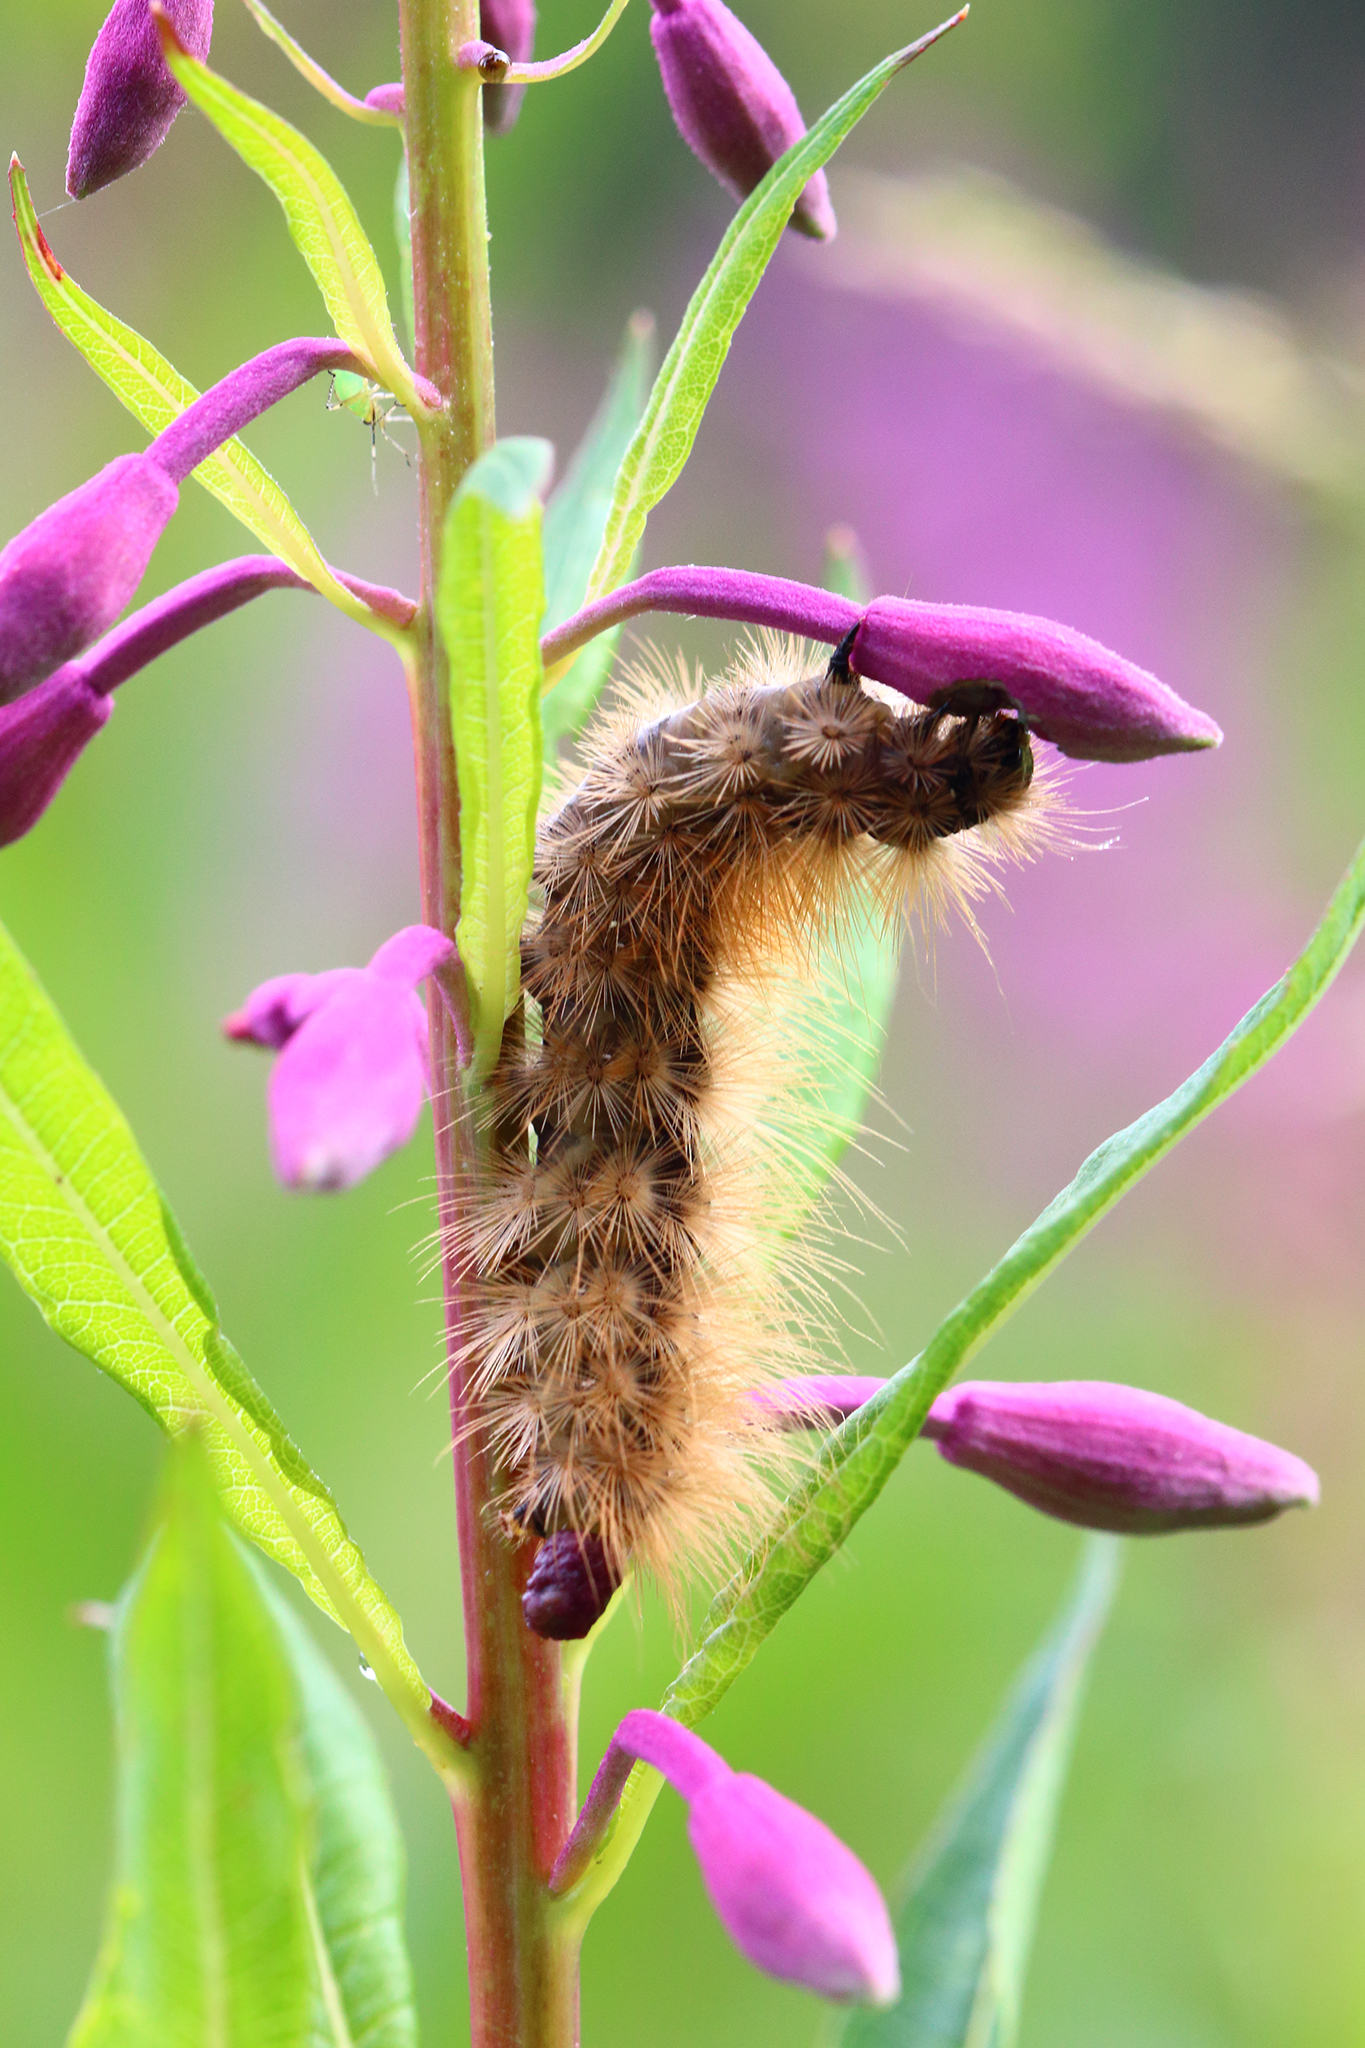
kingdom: Animalia
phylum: Arthropoda
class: Insecta
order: Lepidoptera
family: Erebidae
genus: Phragmatobia
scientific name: Phragmatobia fuliginosa
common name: Ruby tiger
